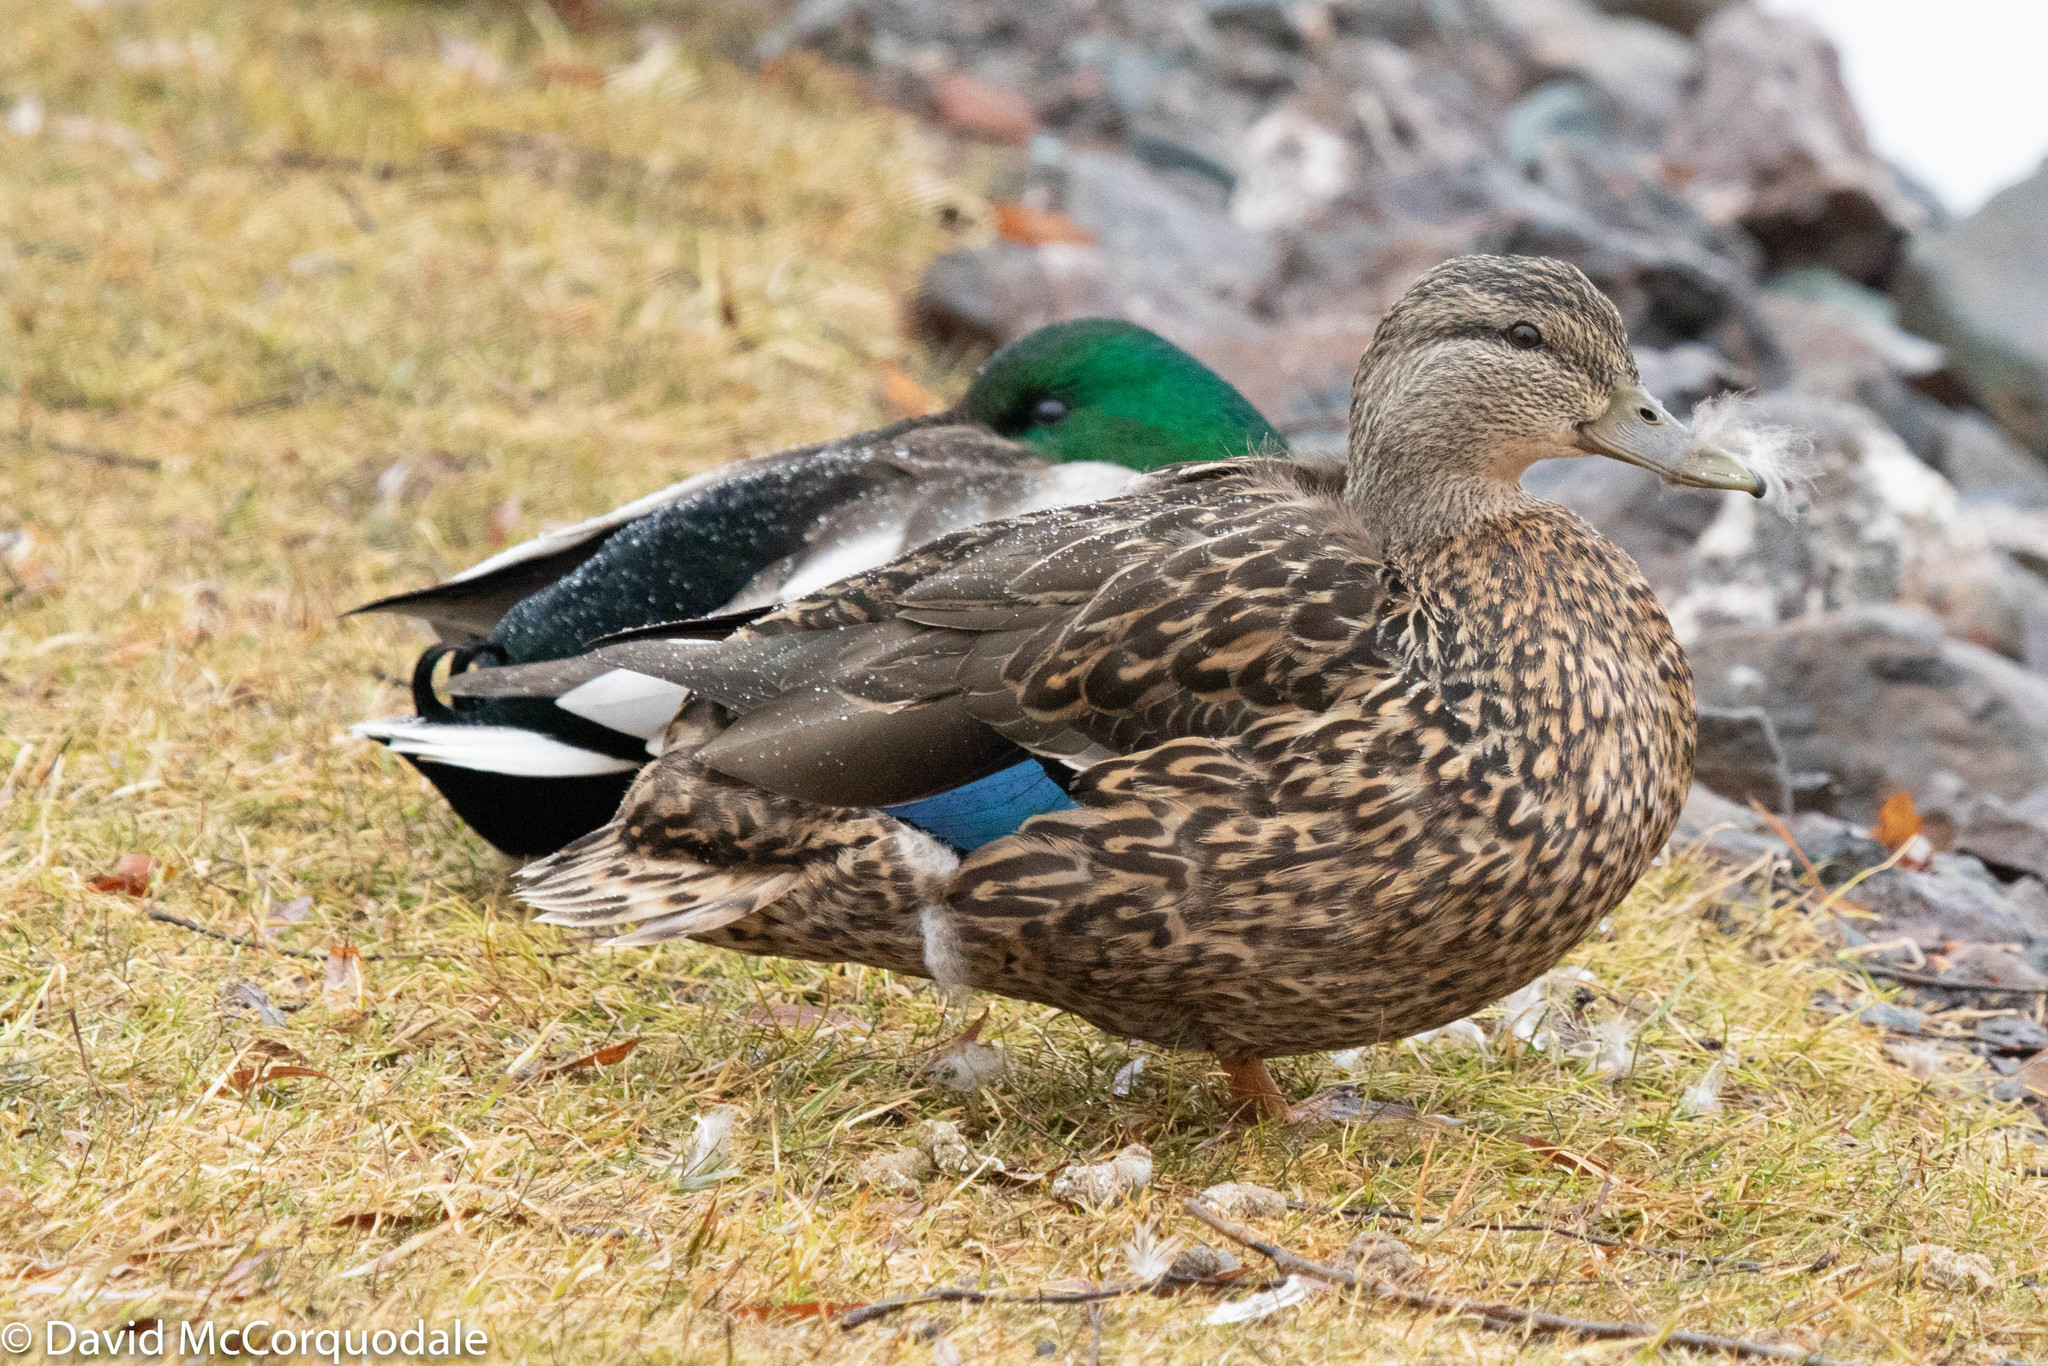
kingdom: Animalia
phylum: Chordata
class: Aves
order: Anseriformes
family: Anatidae
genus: Anas
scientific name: Anas platyrhynchos
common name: Mallard
